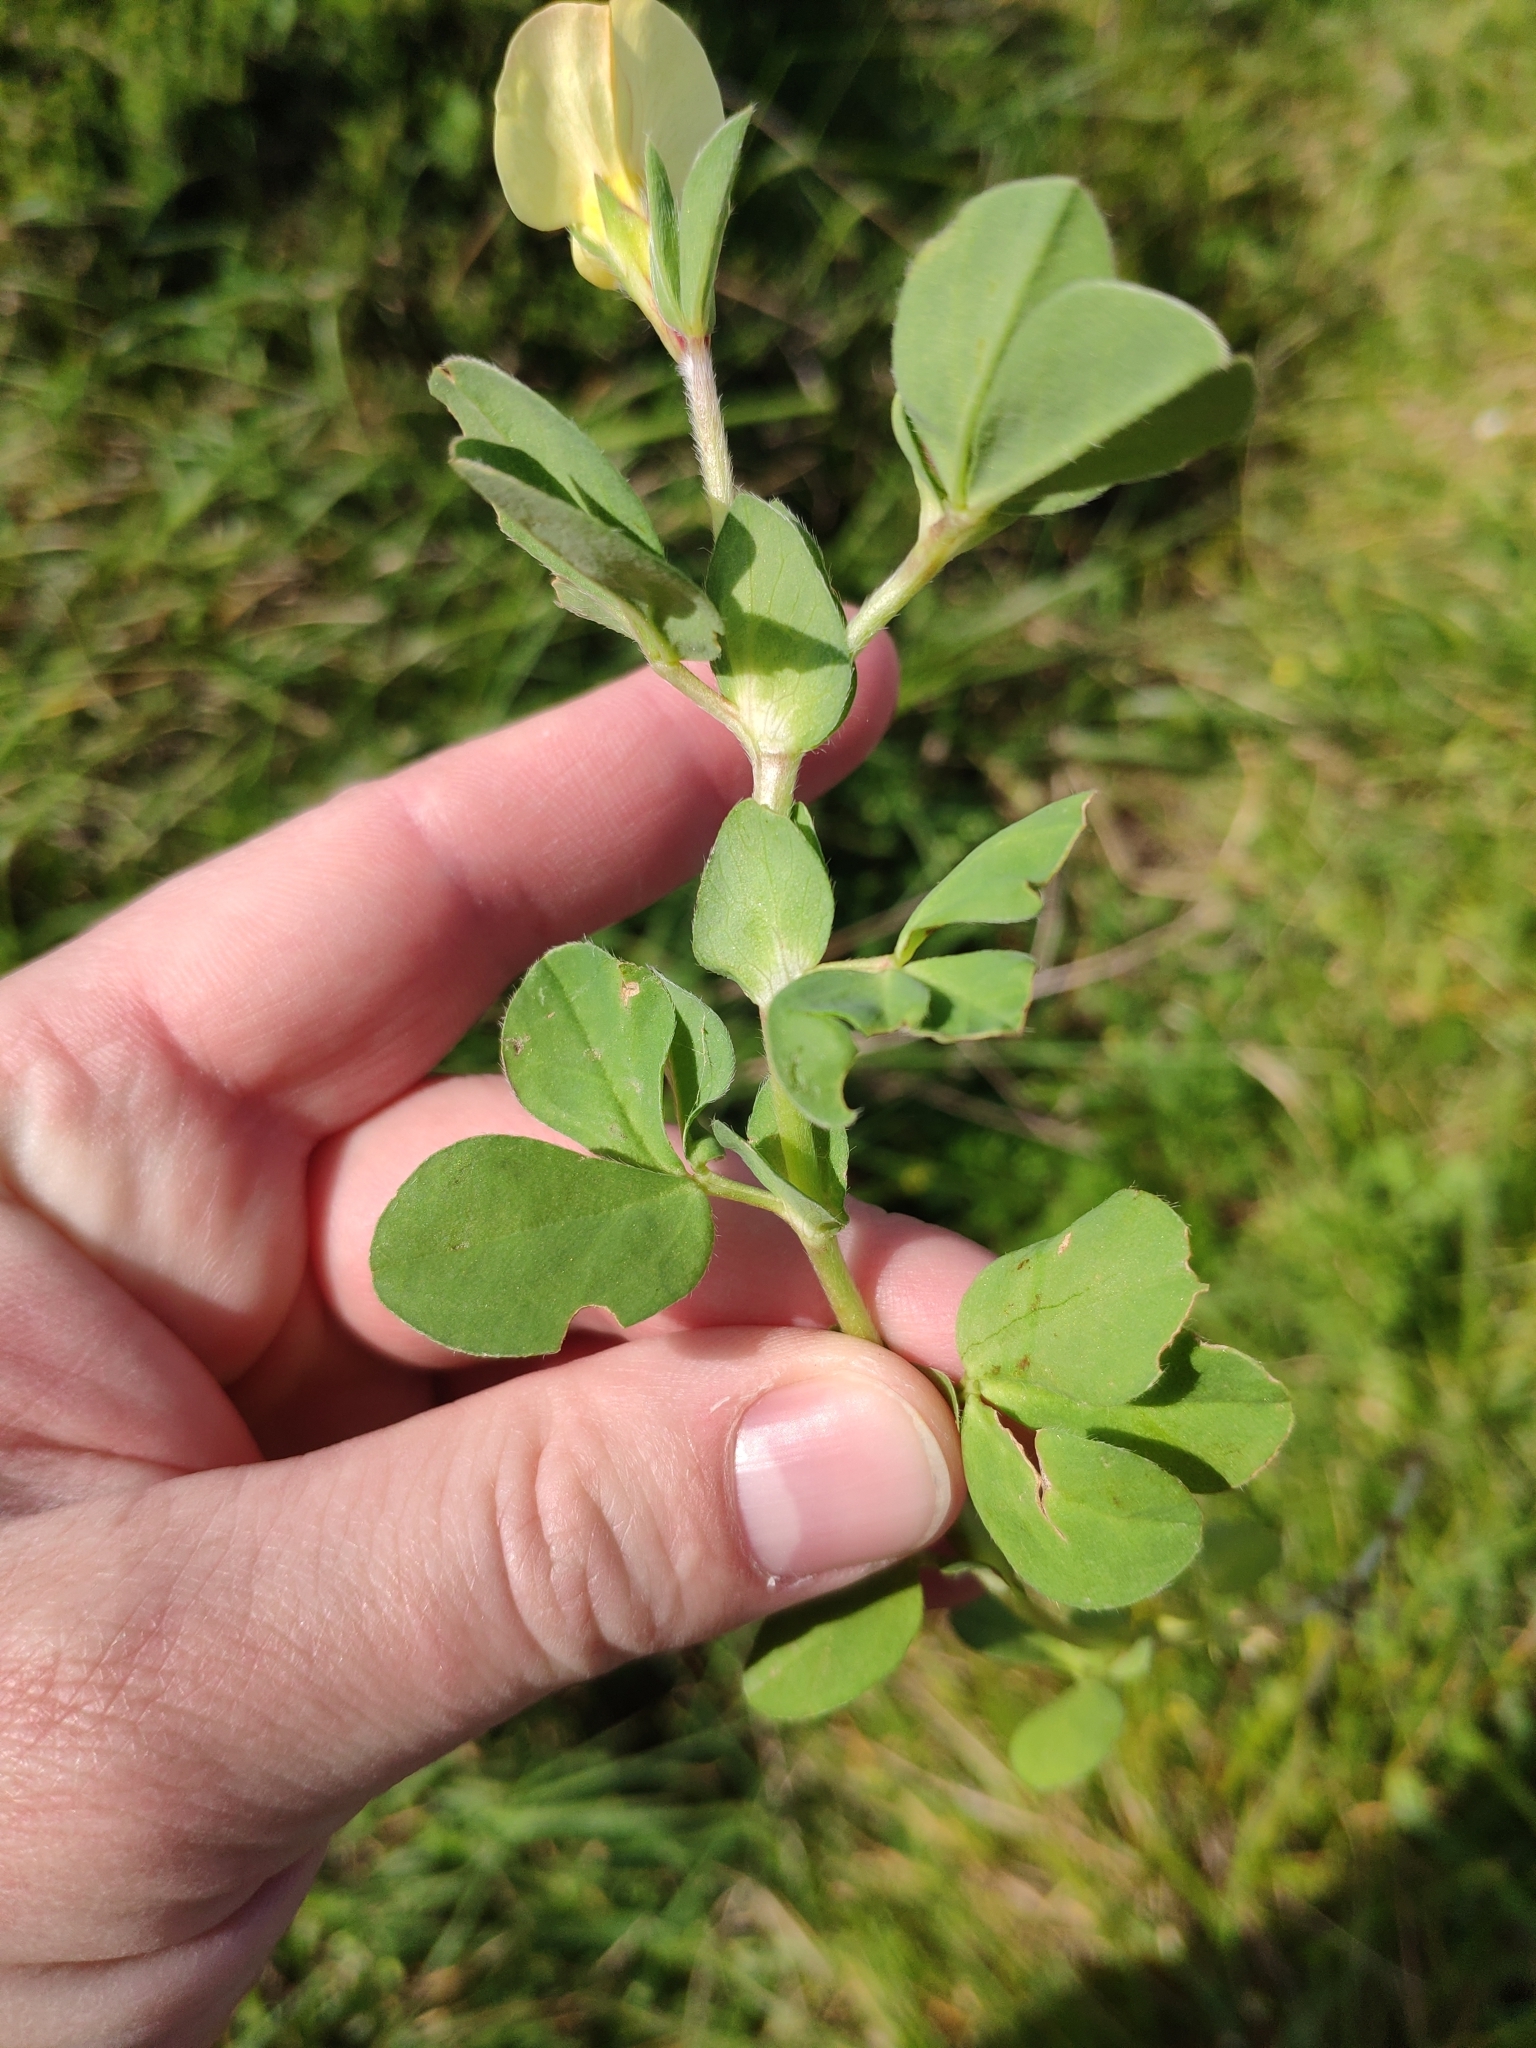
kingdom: Plantae
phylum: Tracheophyta
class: Magnoliopsida
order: Fabales
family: Fabaceae
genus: Lotus
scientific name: Lotus maritimus
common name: Dragon's-teeth
